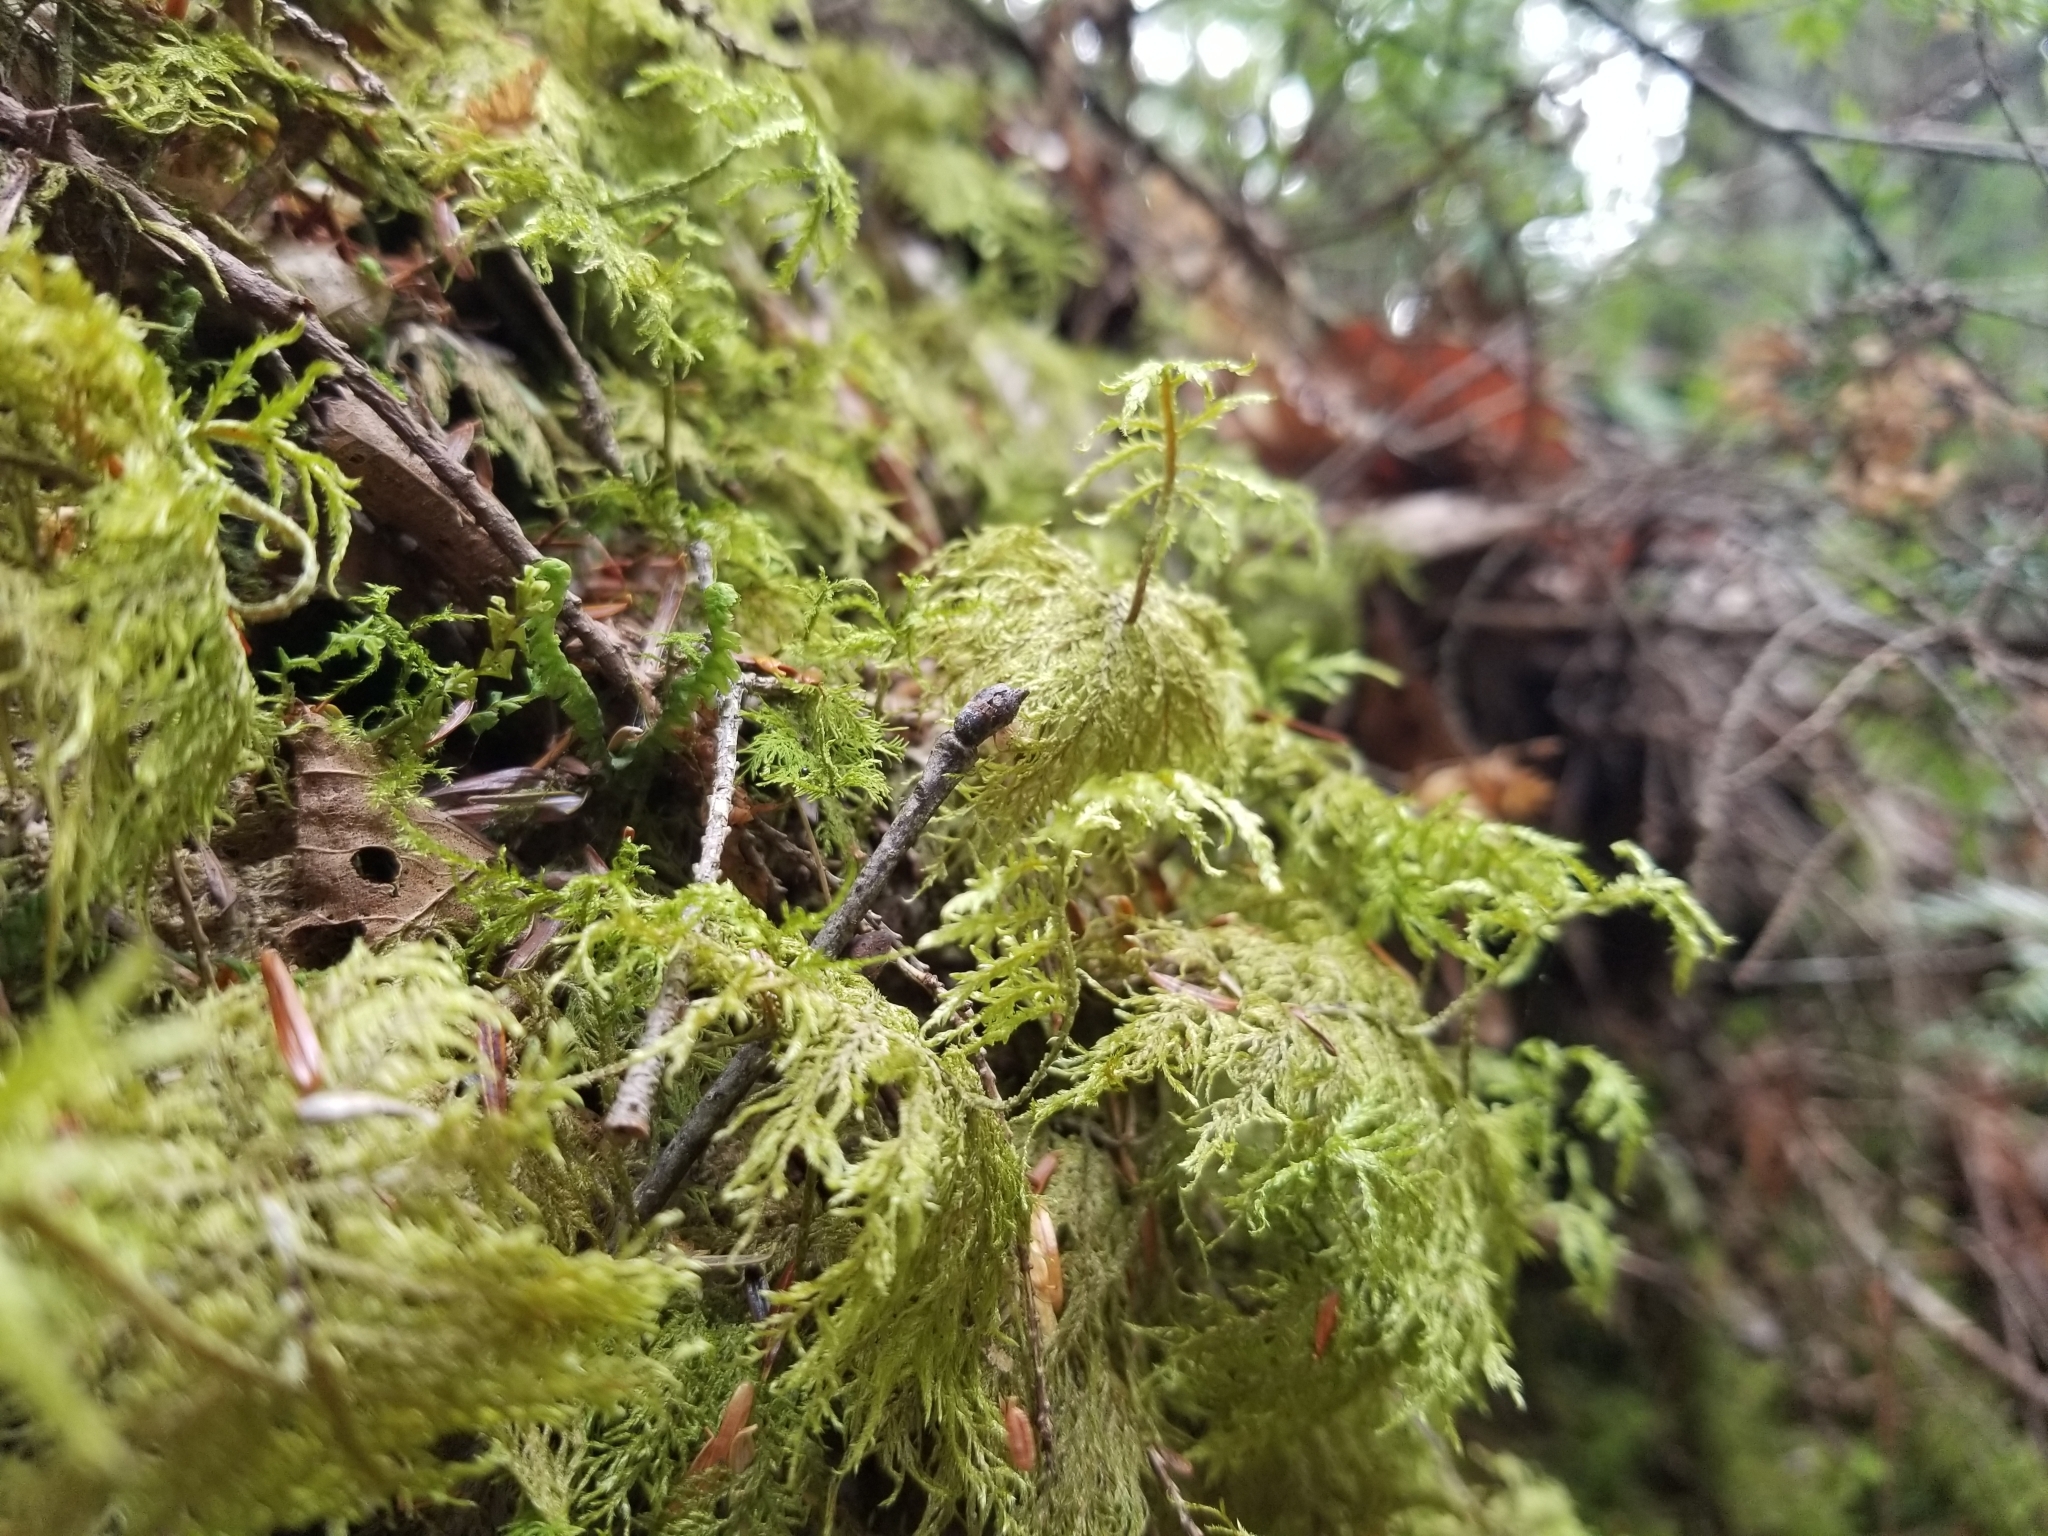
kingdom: Plantae
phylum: Bryophyta
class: Bryopsida
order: Hypnales
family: Hylocomiaceae
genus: Hylocomium
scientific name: Hylocomium splendens
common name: Stairstep moss
